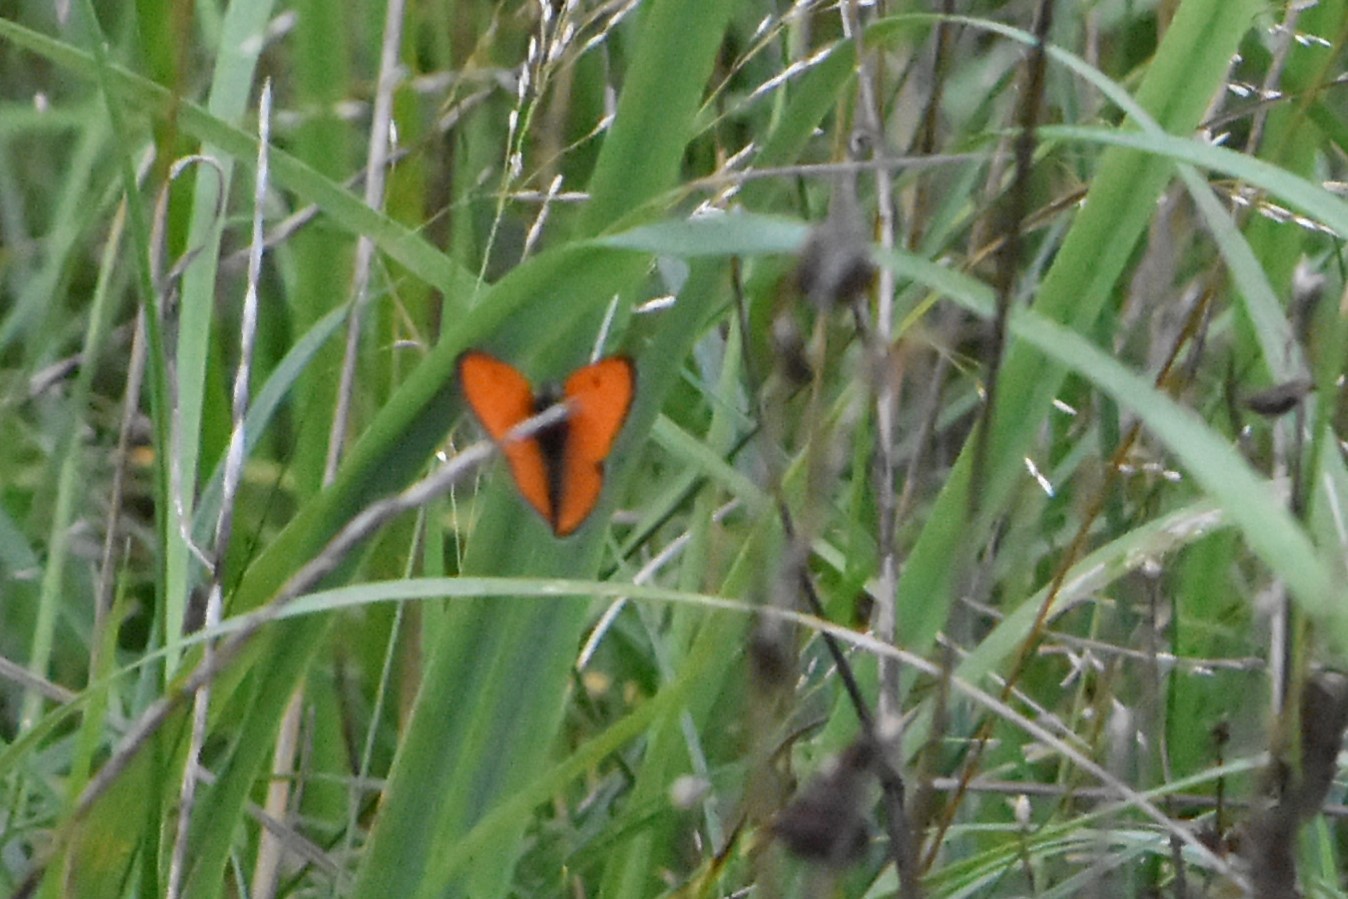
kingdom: Animalia
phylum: Arthropoda
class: Insecta
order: Lepidoptera
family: Lycaenidae
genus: Lycaena
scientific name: Lycaena dispar
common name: Large copper
